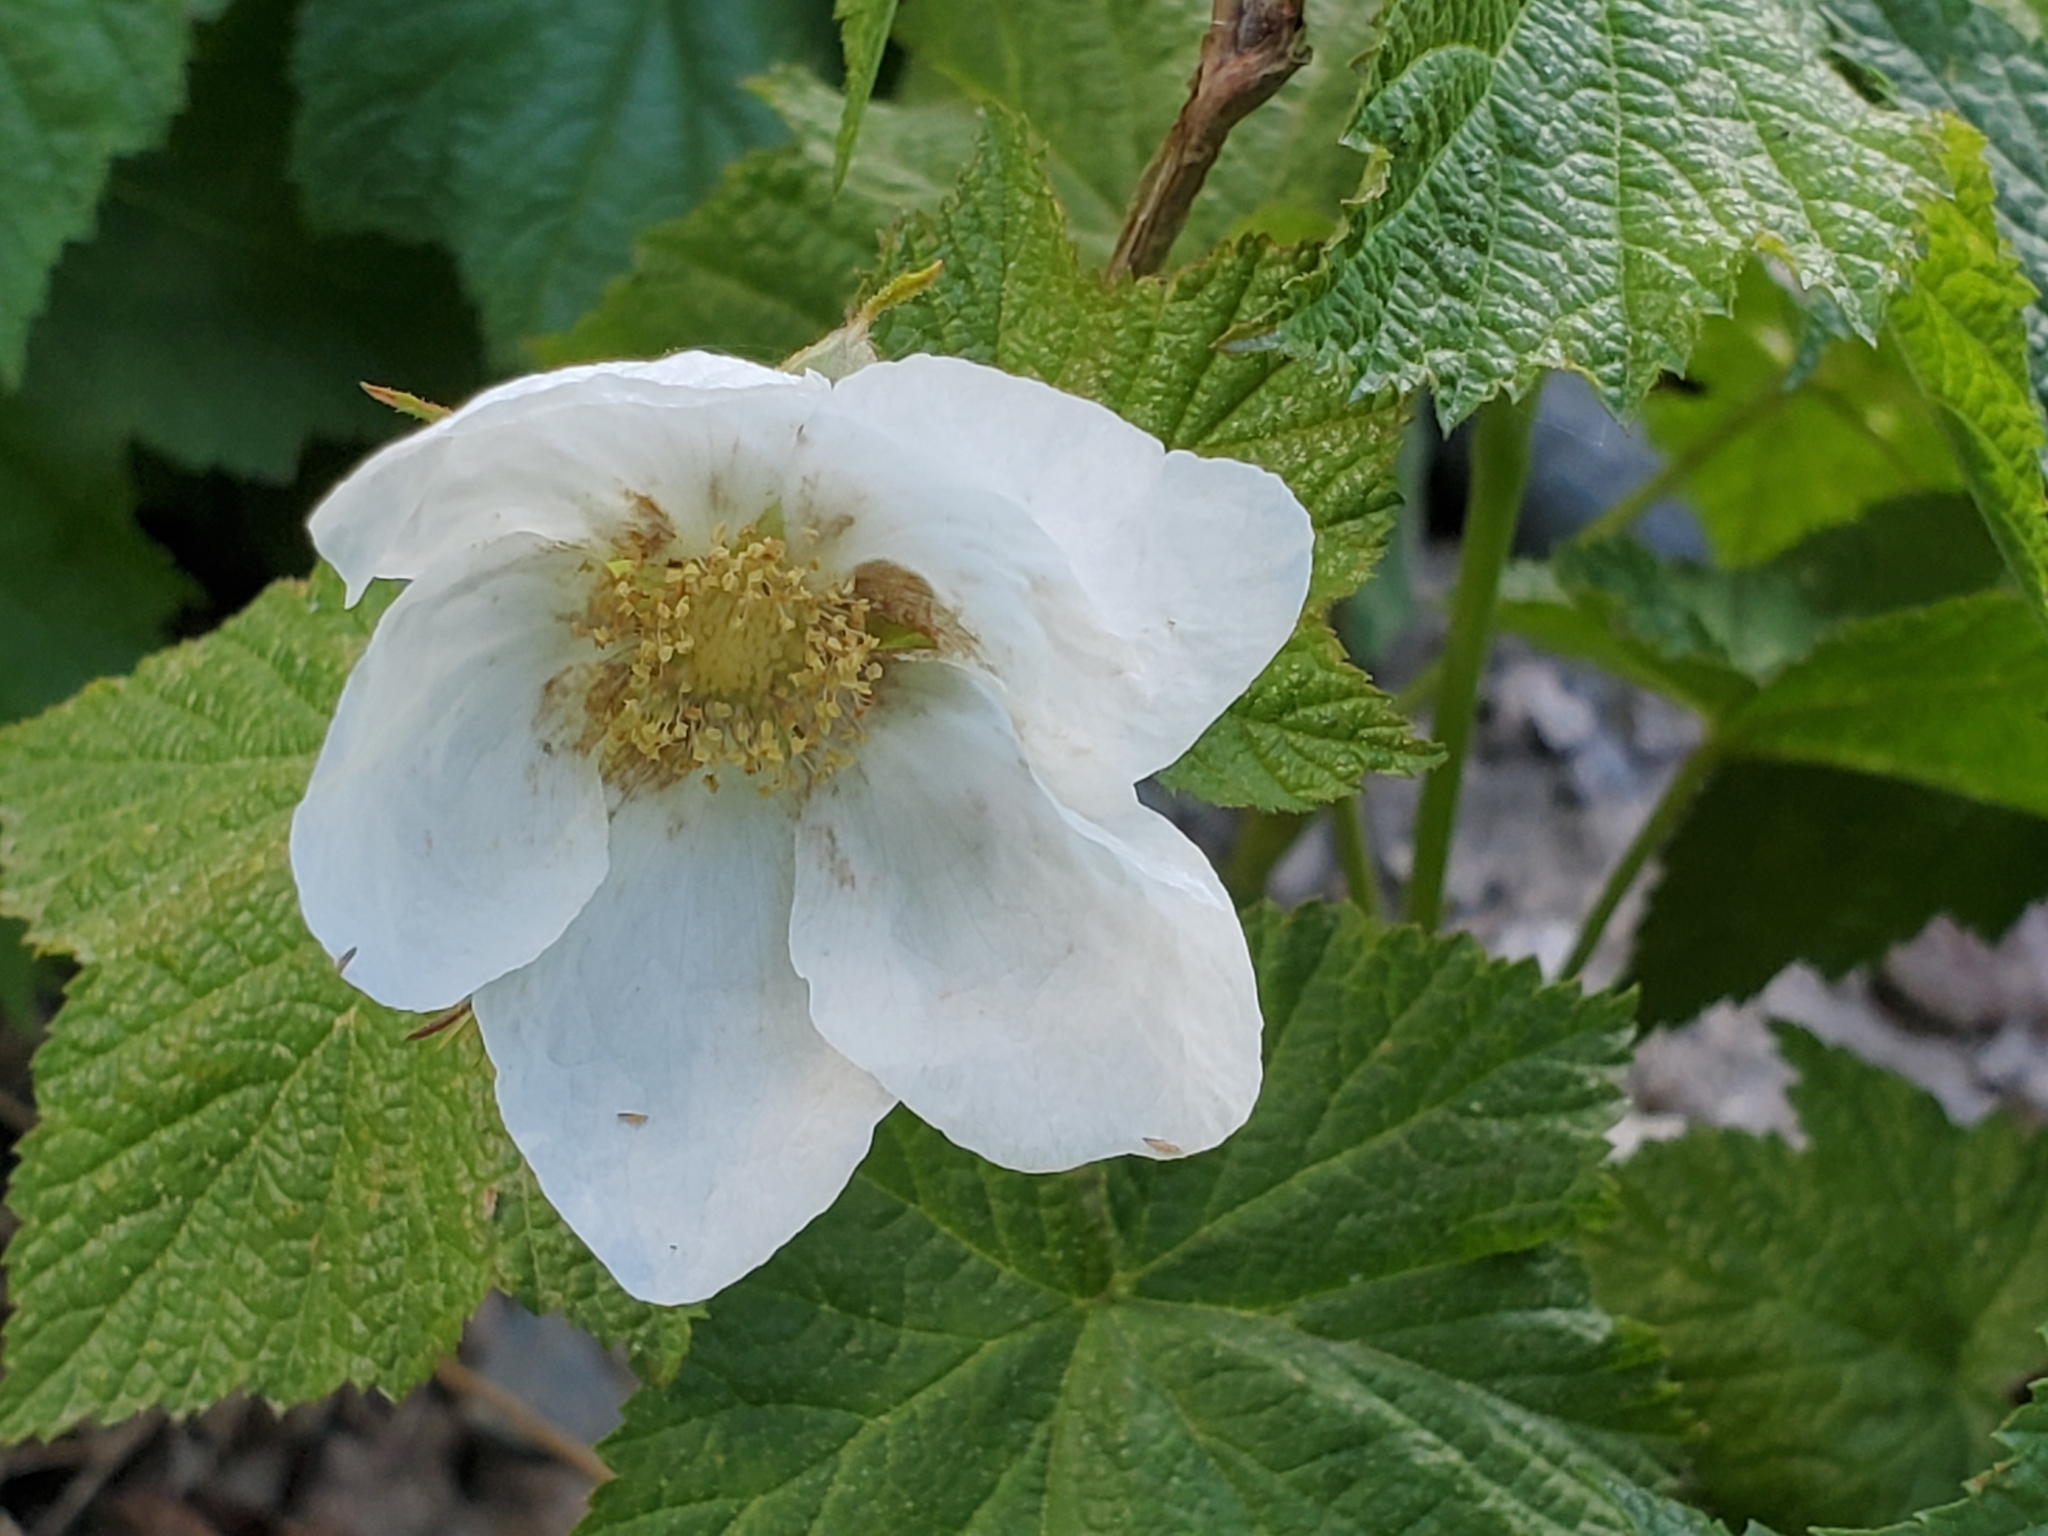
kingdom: Plantae
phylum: Tracheophyta
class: Magnoliopsida
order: Rosales
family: Rosaceae
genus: Rubus
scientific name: Rubus parviflorus
